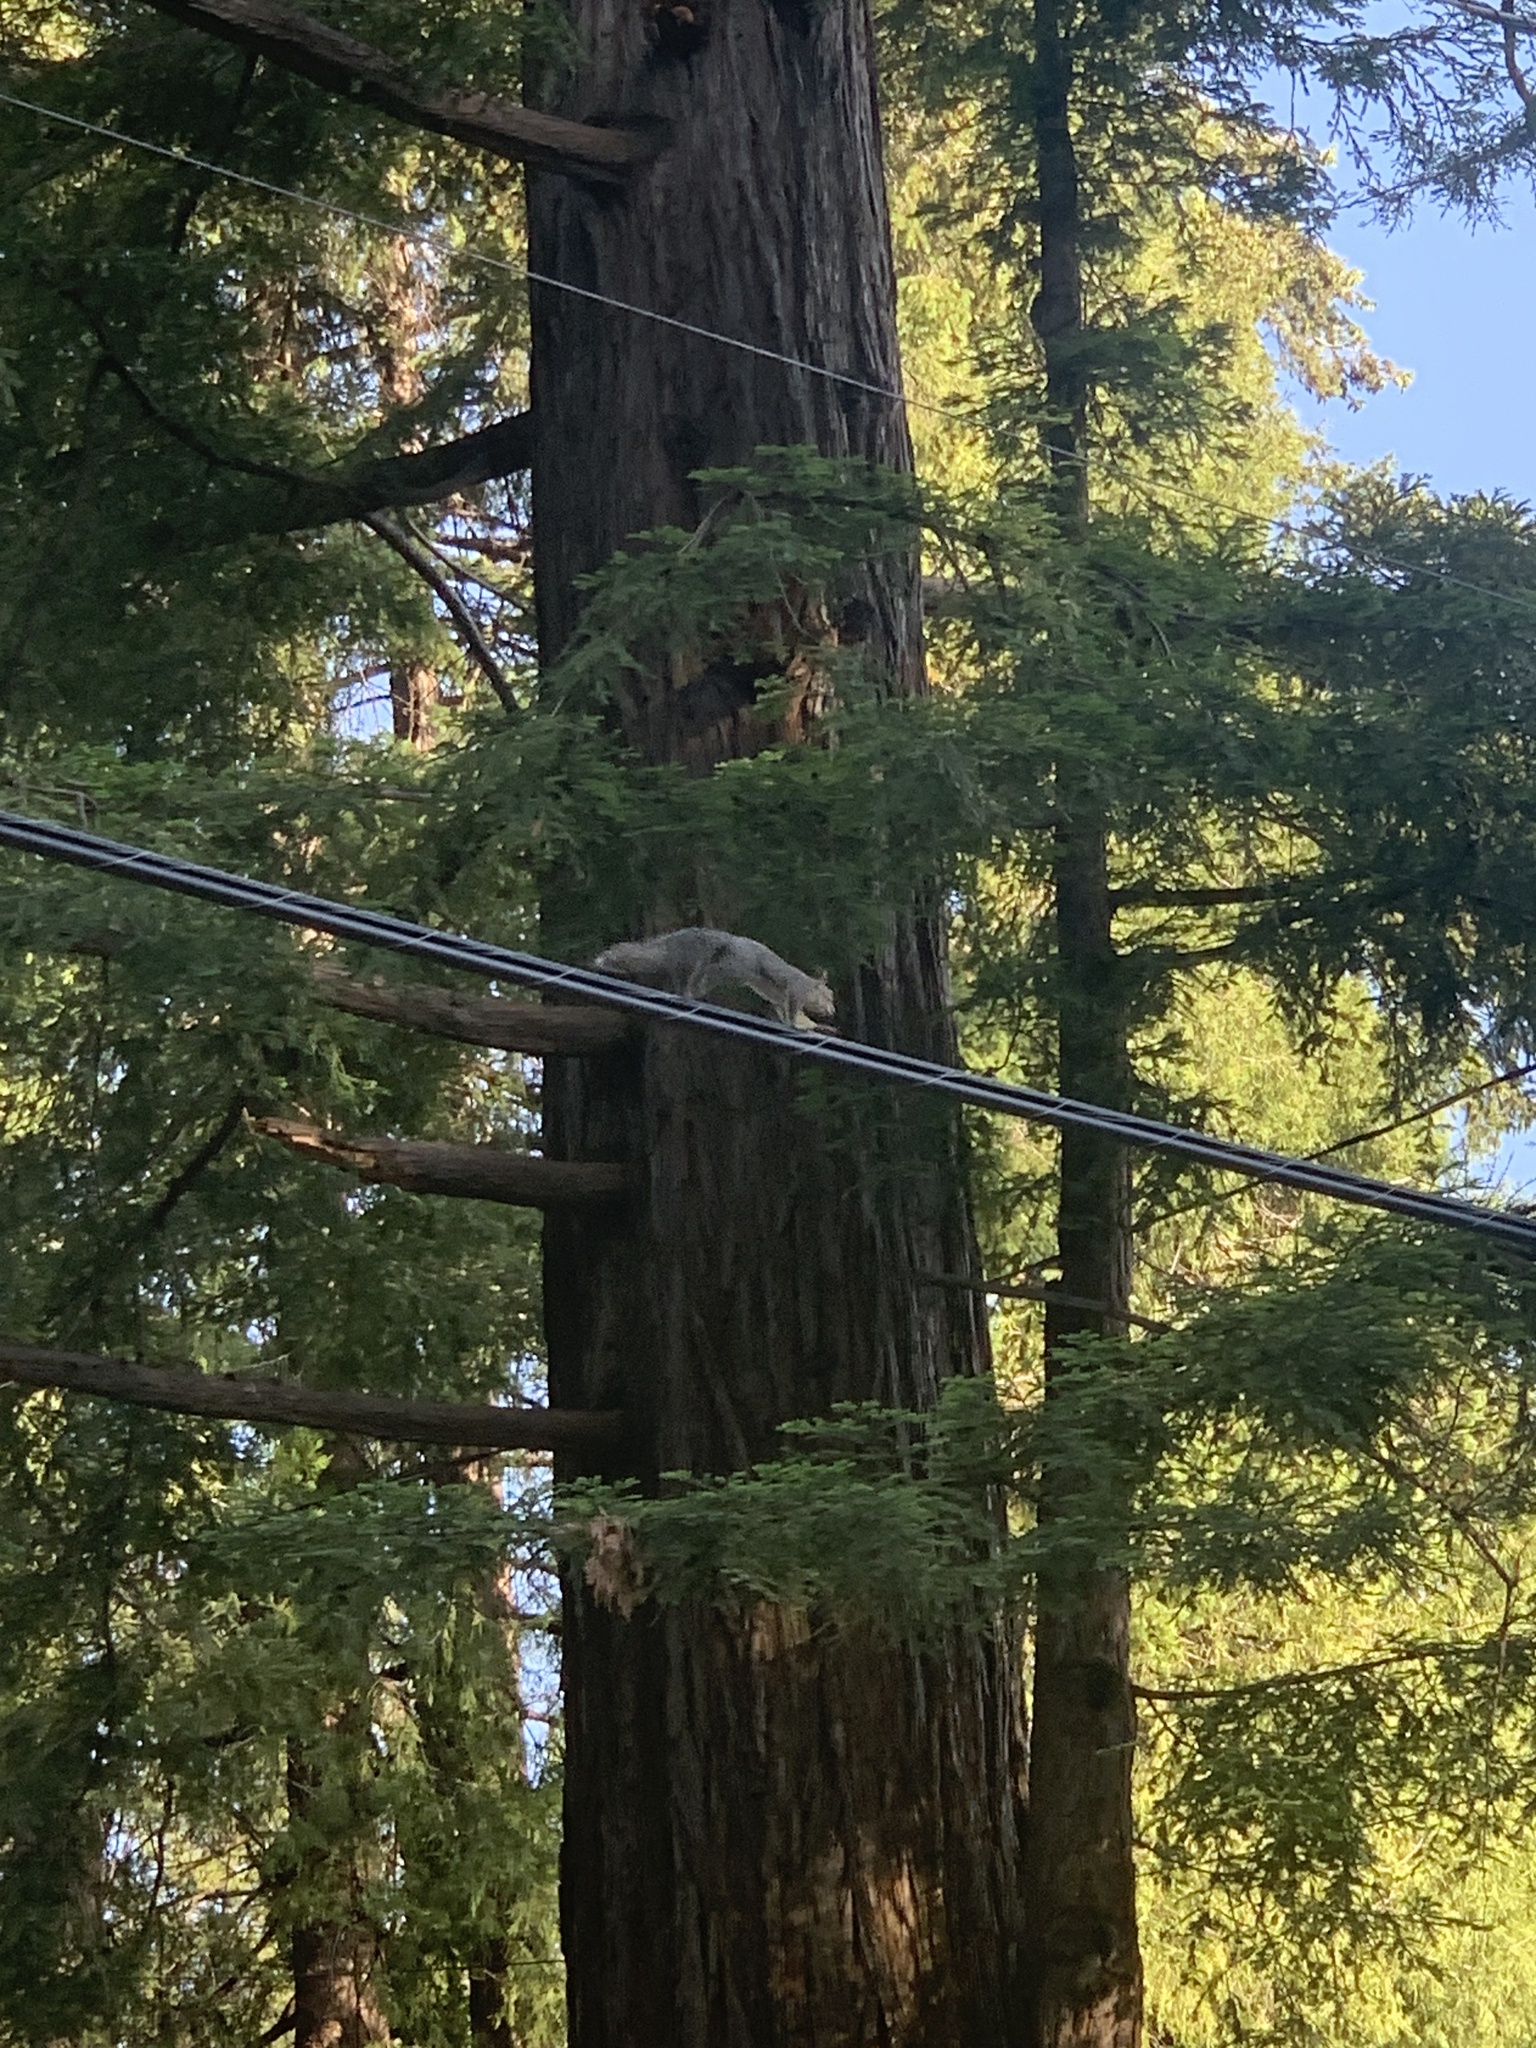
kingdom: Animalia
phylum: Chordata
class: Mammalia
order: Rodentia
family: Sciuridae
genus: Sciurus
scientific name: Sciurus griseus
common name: Western gray squirrel
